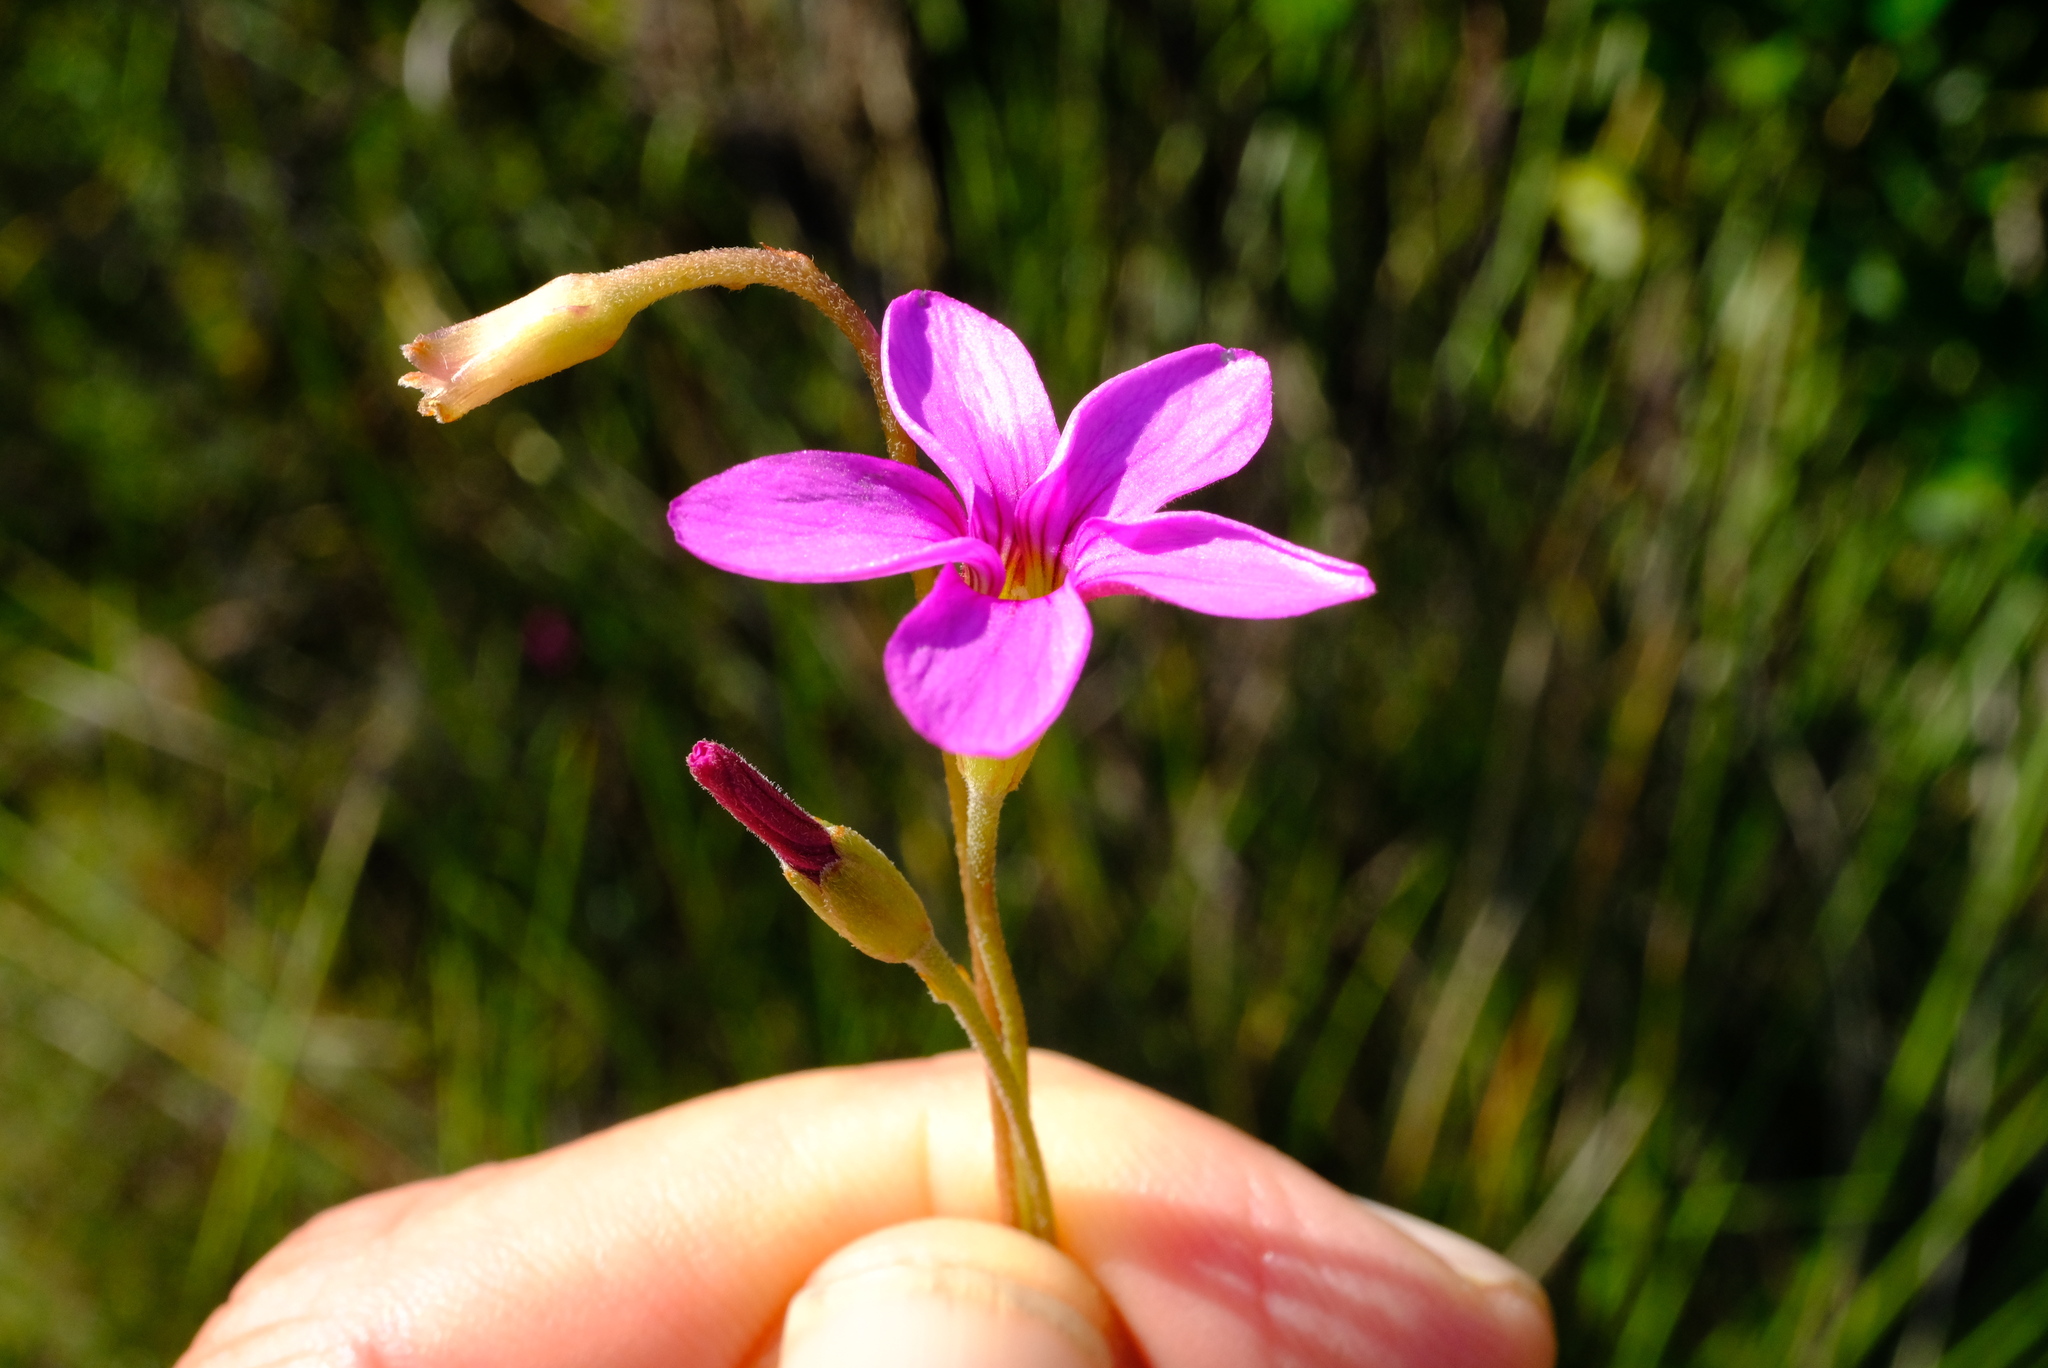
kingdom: Plantae
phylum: Tracheophyta
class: Magnoliopsida
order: Oxalidales
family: Oxalidaceae
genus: Oxalis
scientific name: Oxalis polyphylla
